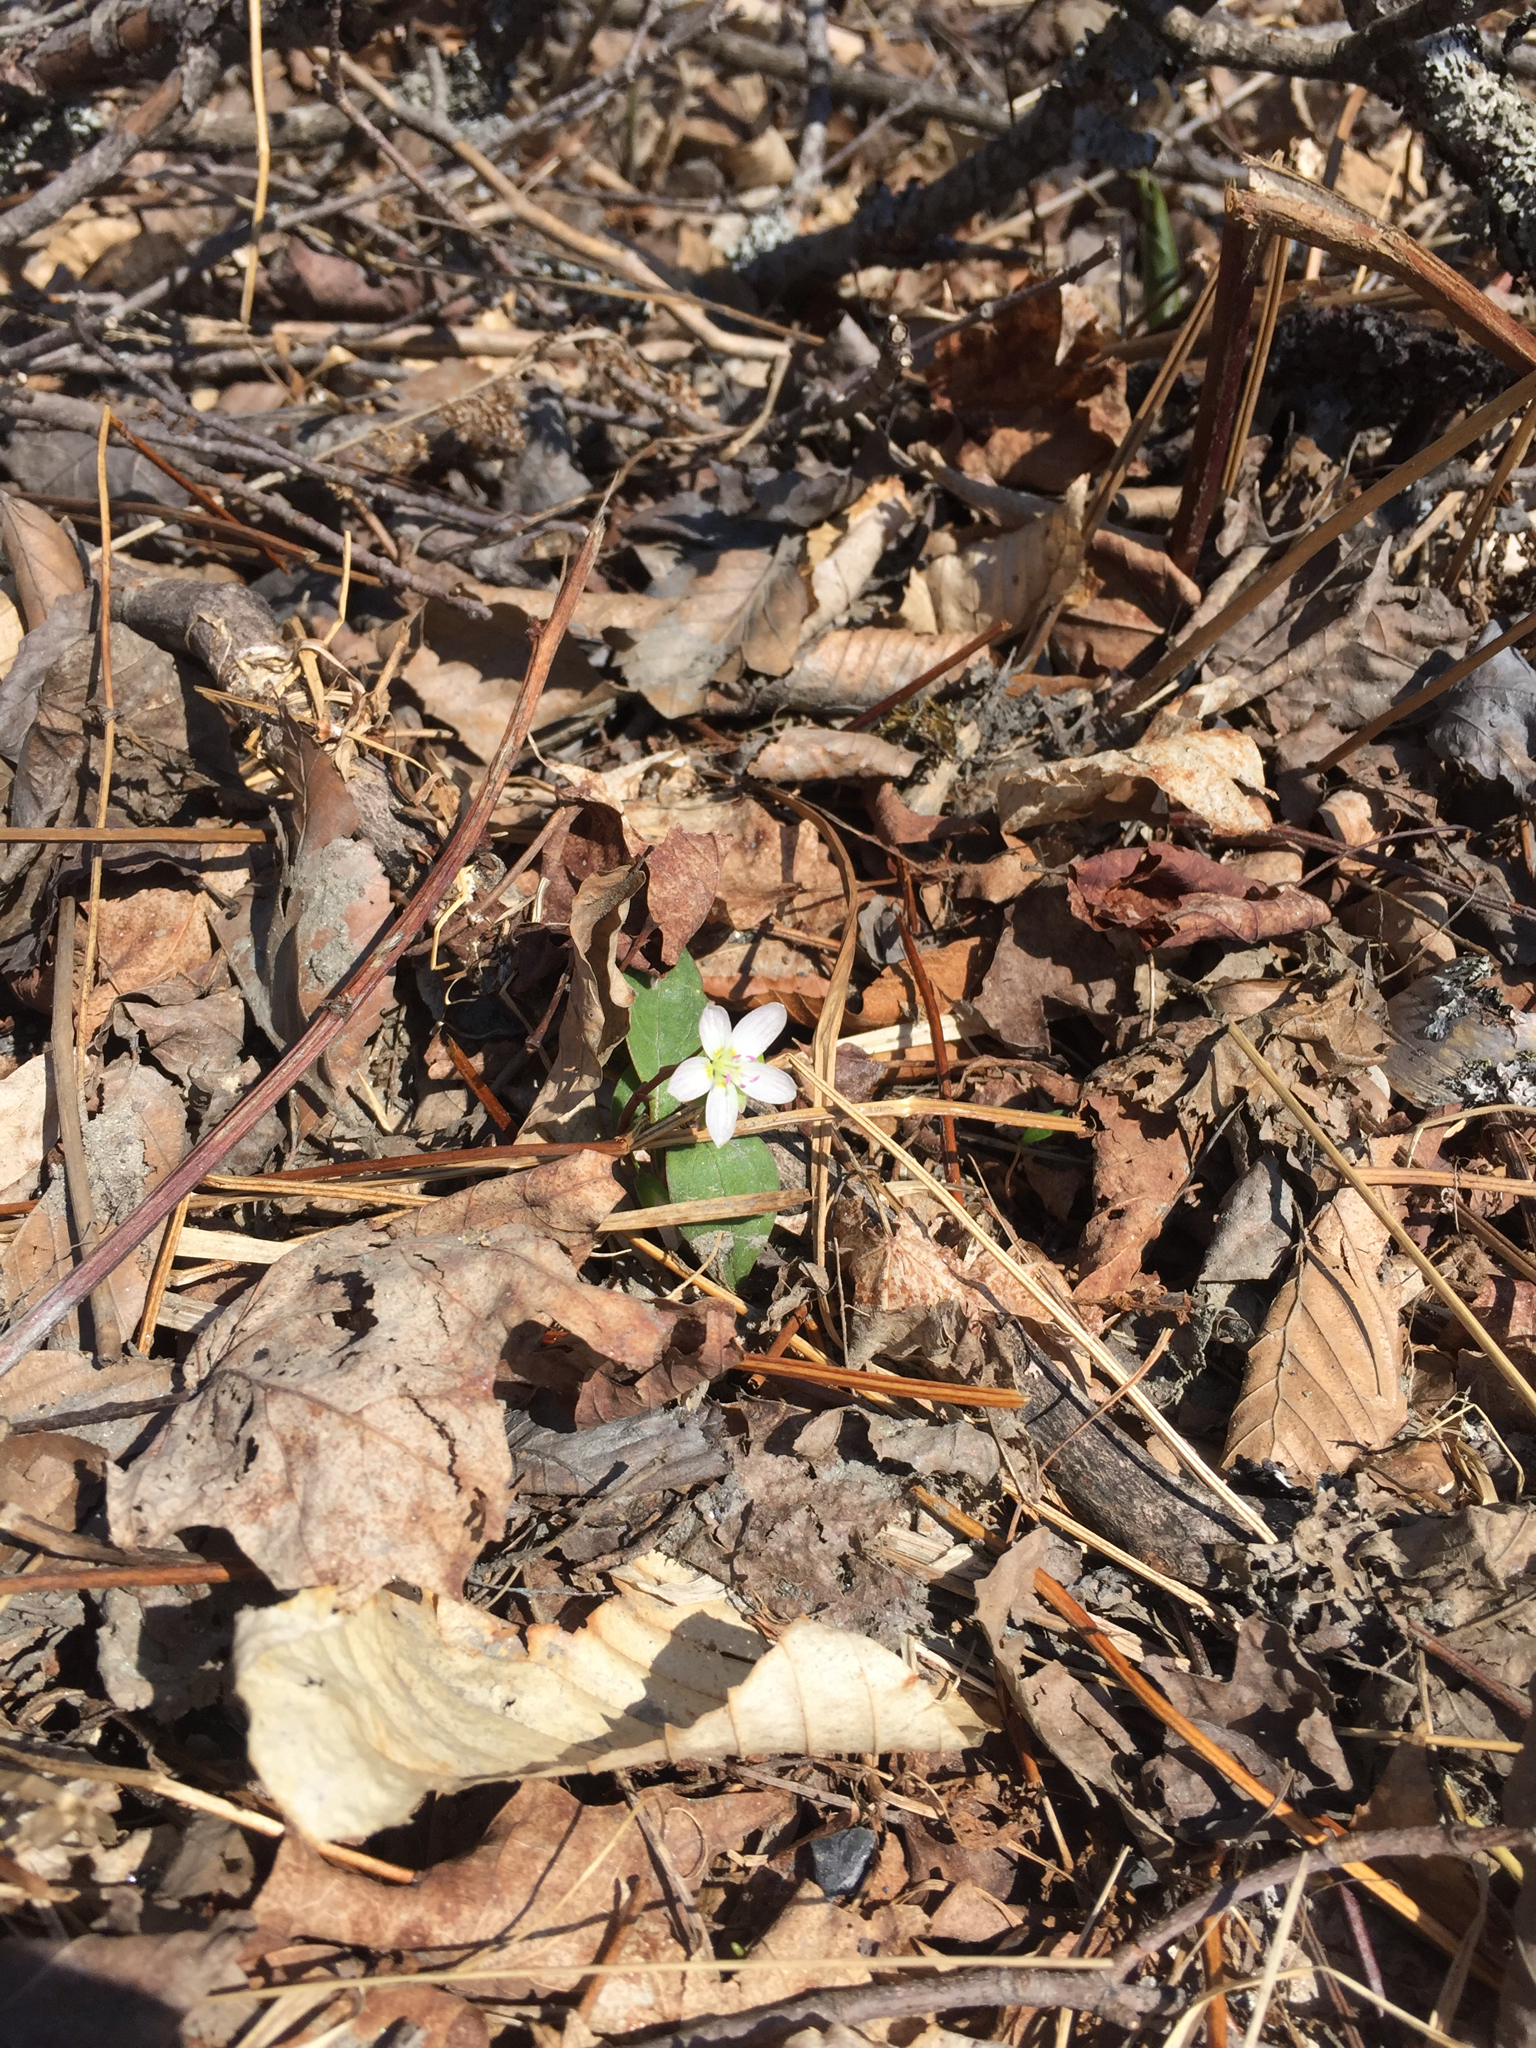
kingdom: Plantae
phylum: Tracheophyta
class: Magnoliopsida
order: Caryophyllales
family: Montiaceae
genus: Claytonia
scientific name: Claytonia caroliniana
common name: Carolina spring beauty
